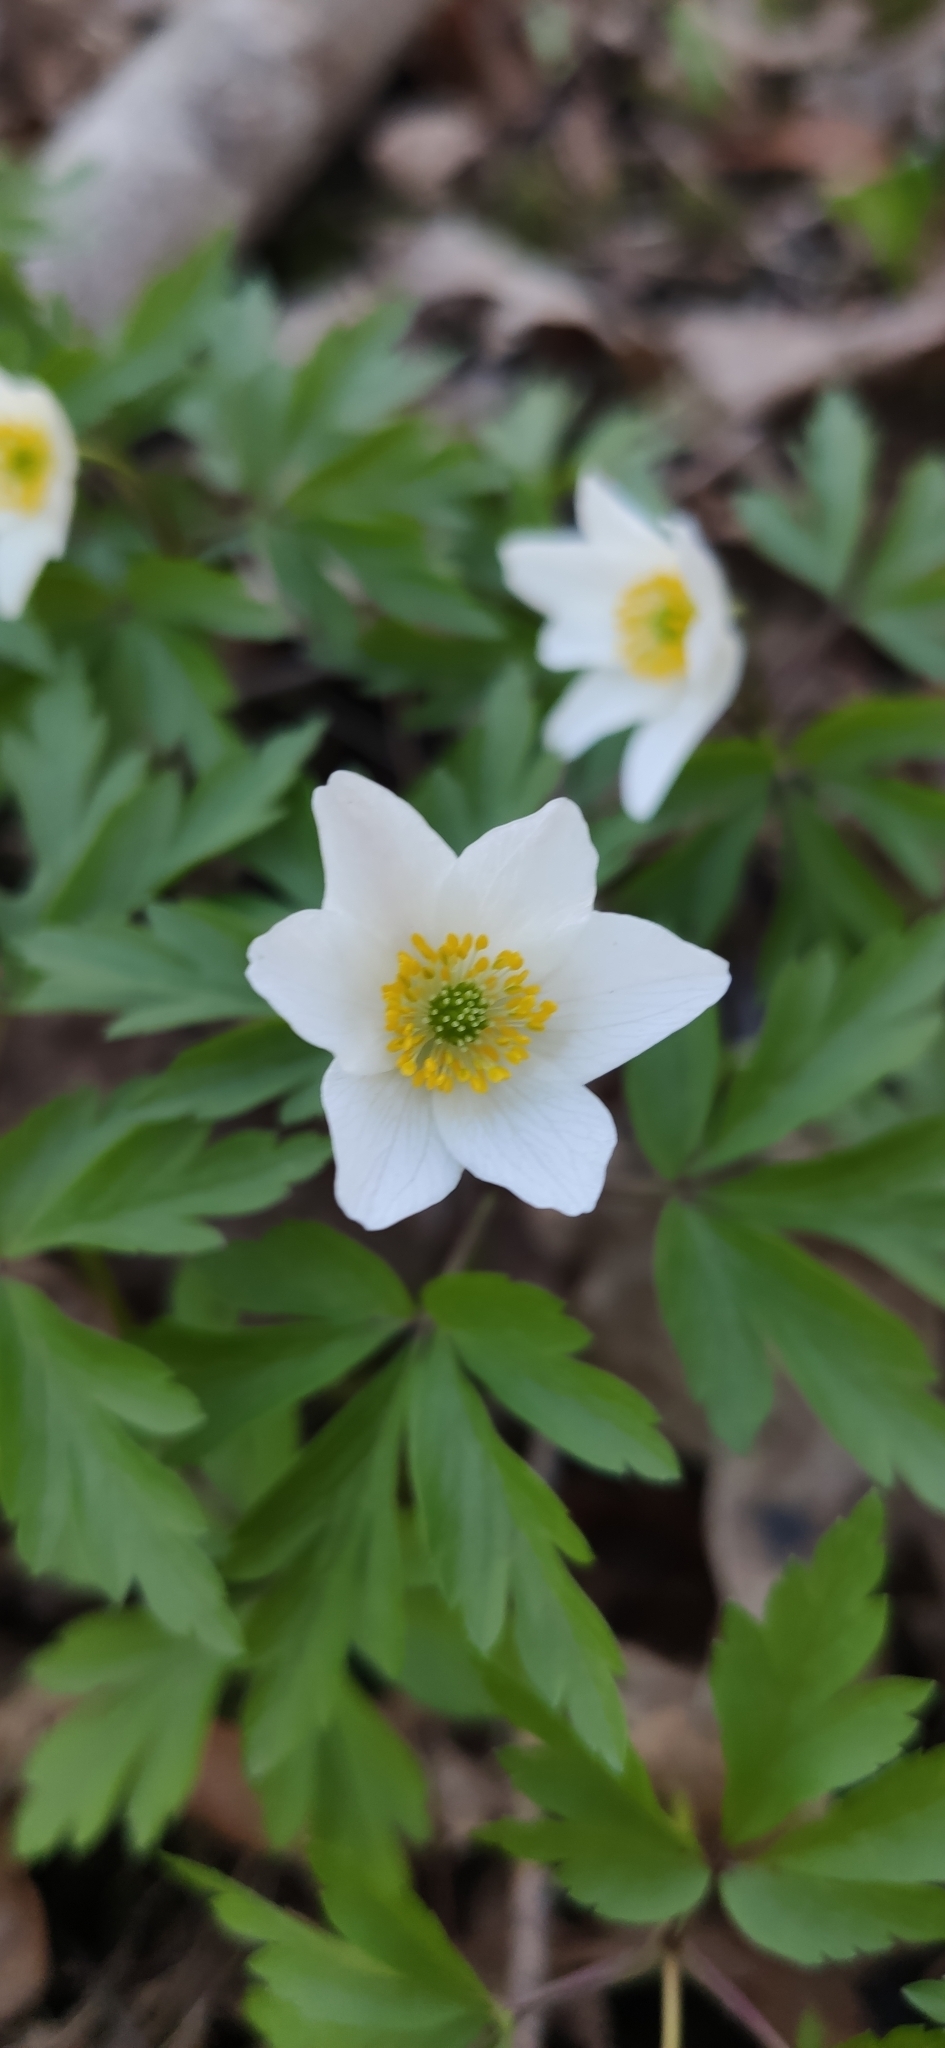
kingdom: Plantae
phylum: Tracheophyta
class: Magnoliopsida
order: Ranunculales
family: Ranunculaceae
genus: Anemone
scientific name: Anemone nemorosa
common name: Wood anemone
